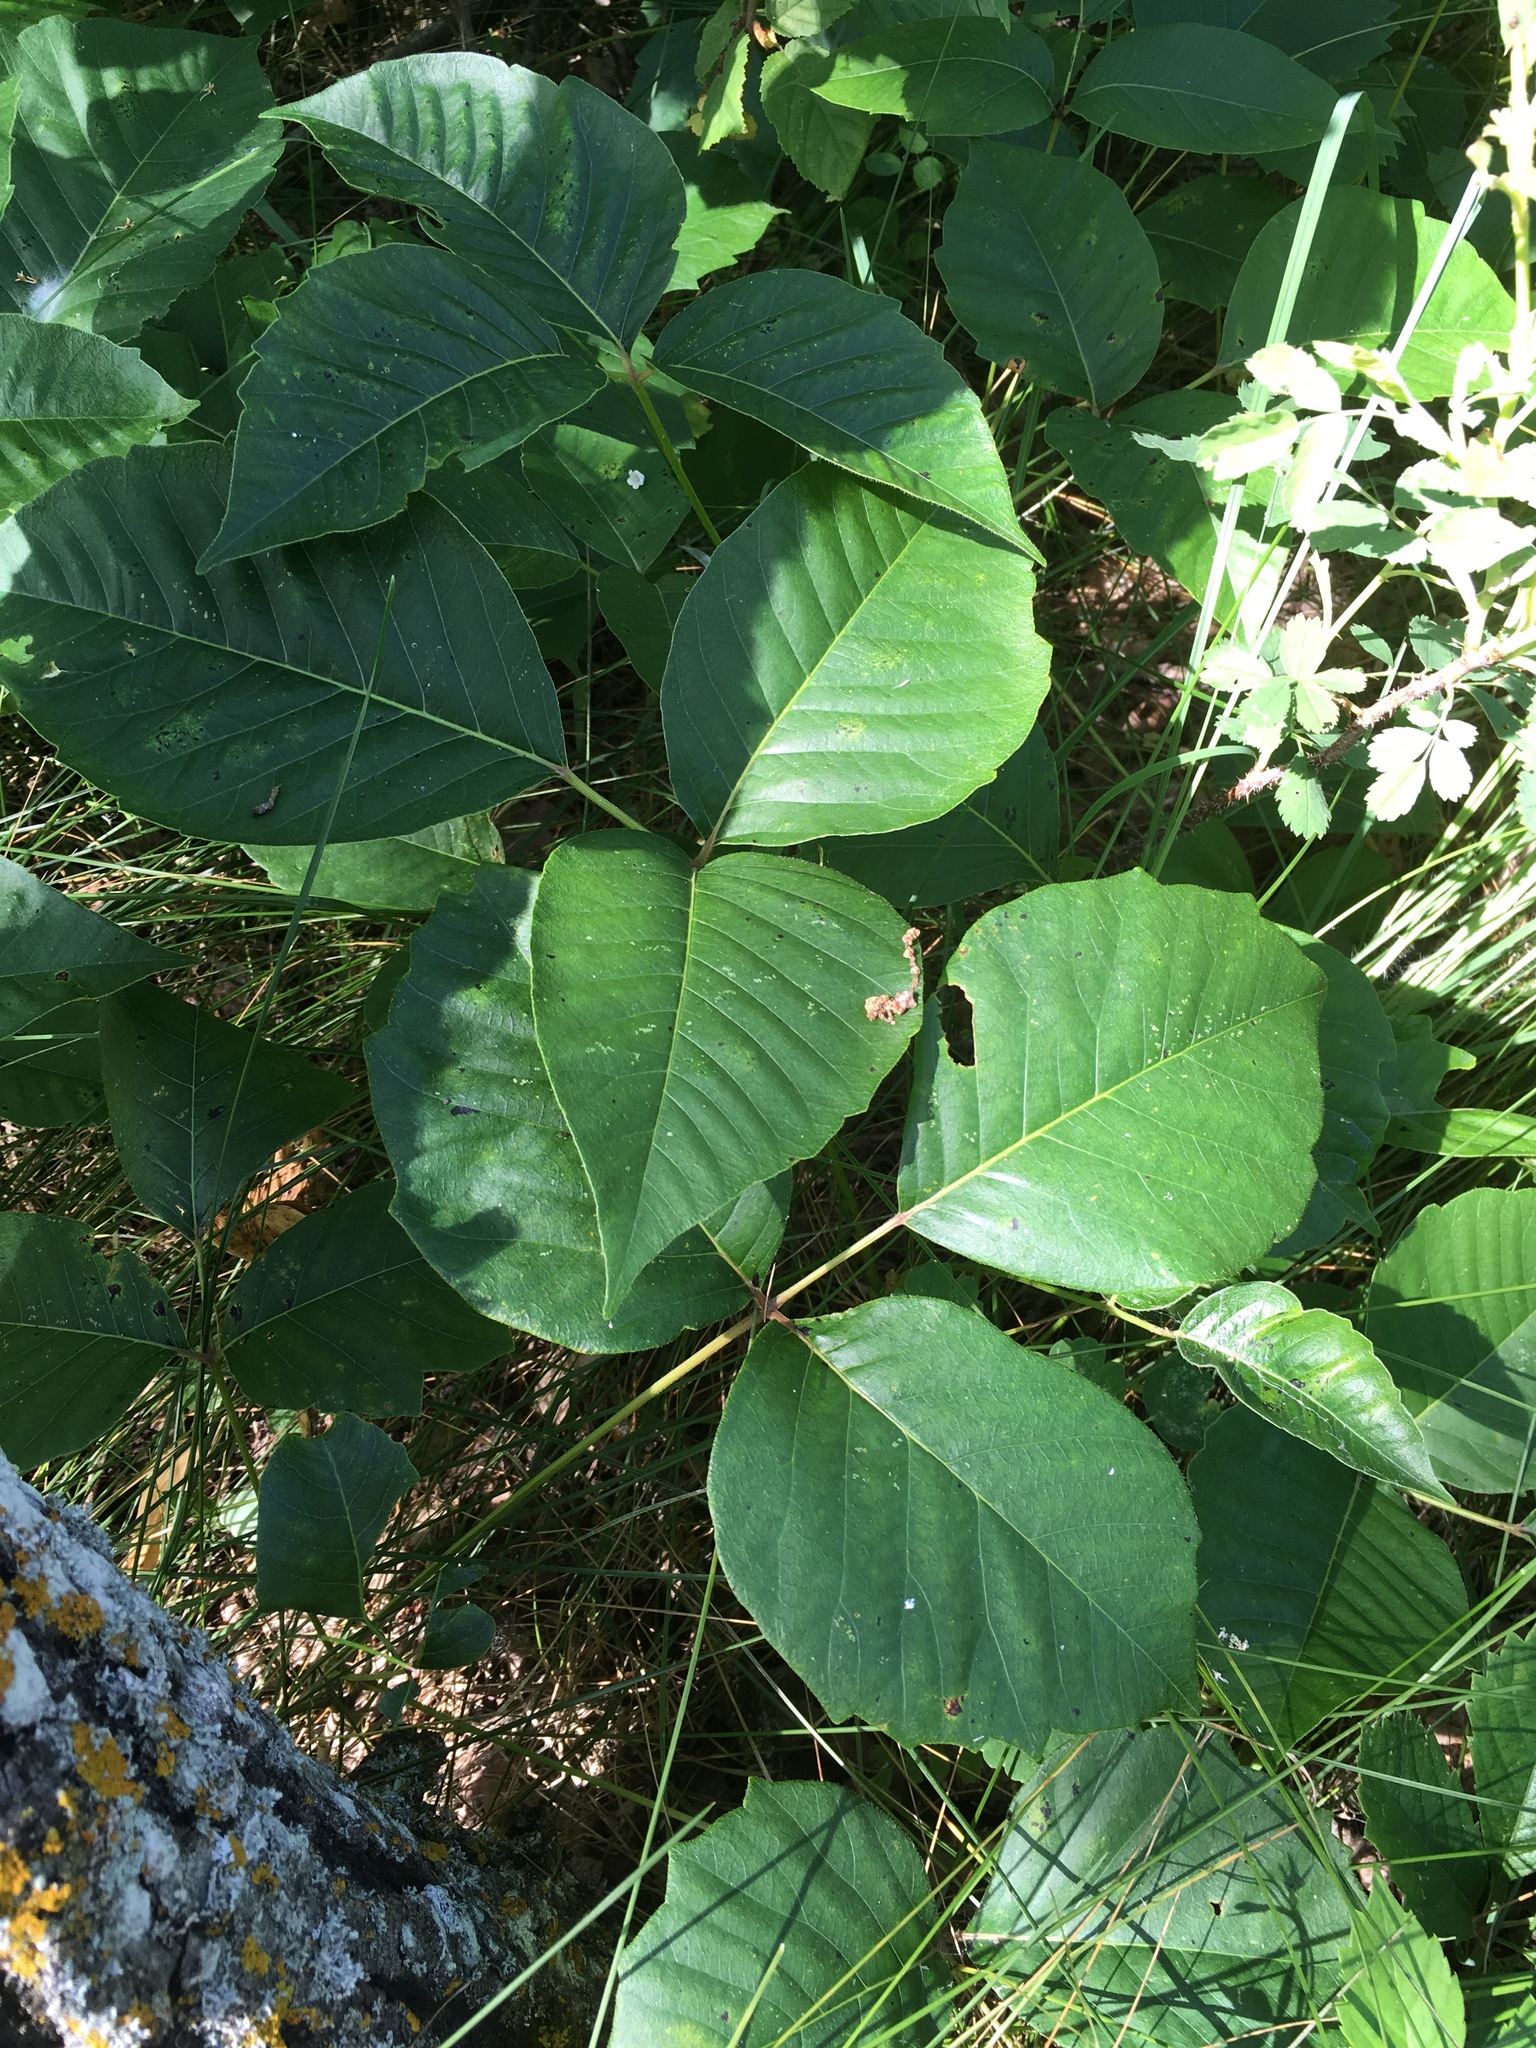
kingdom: Plantae
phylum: Tracheophyta
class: Magnoliopsida
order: Sapindales
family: Anacardiaceae
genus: Toxicodendron
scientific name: Toxicodendron rydbergii
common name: Rydberg's poison-ivy
